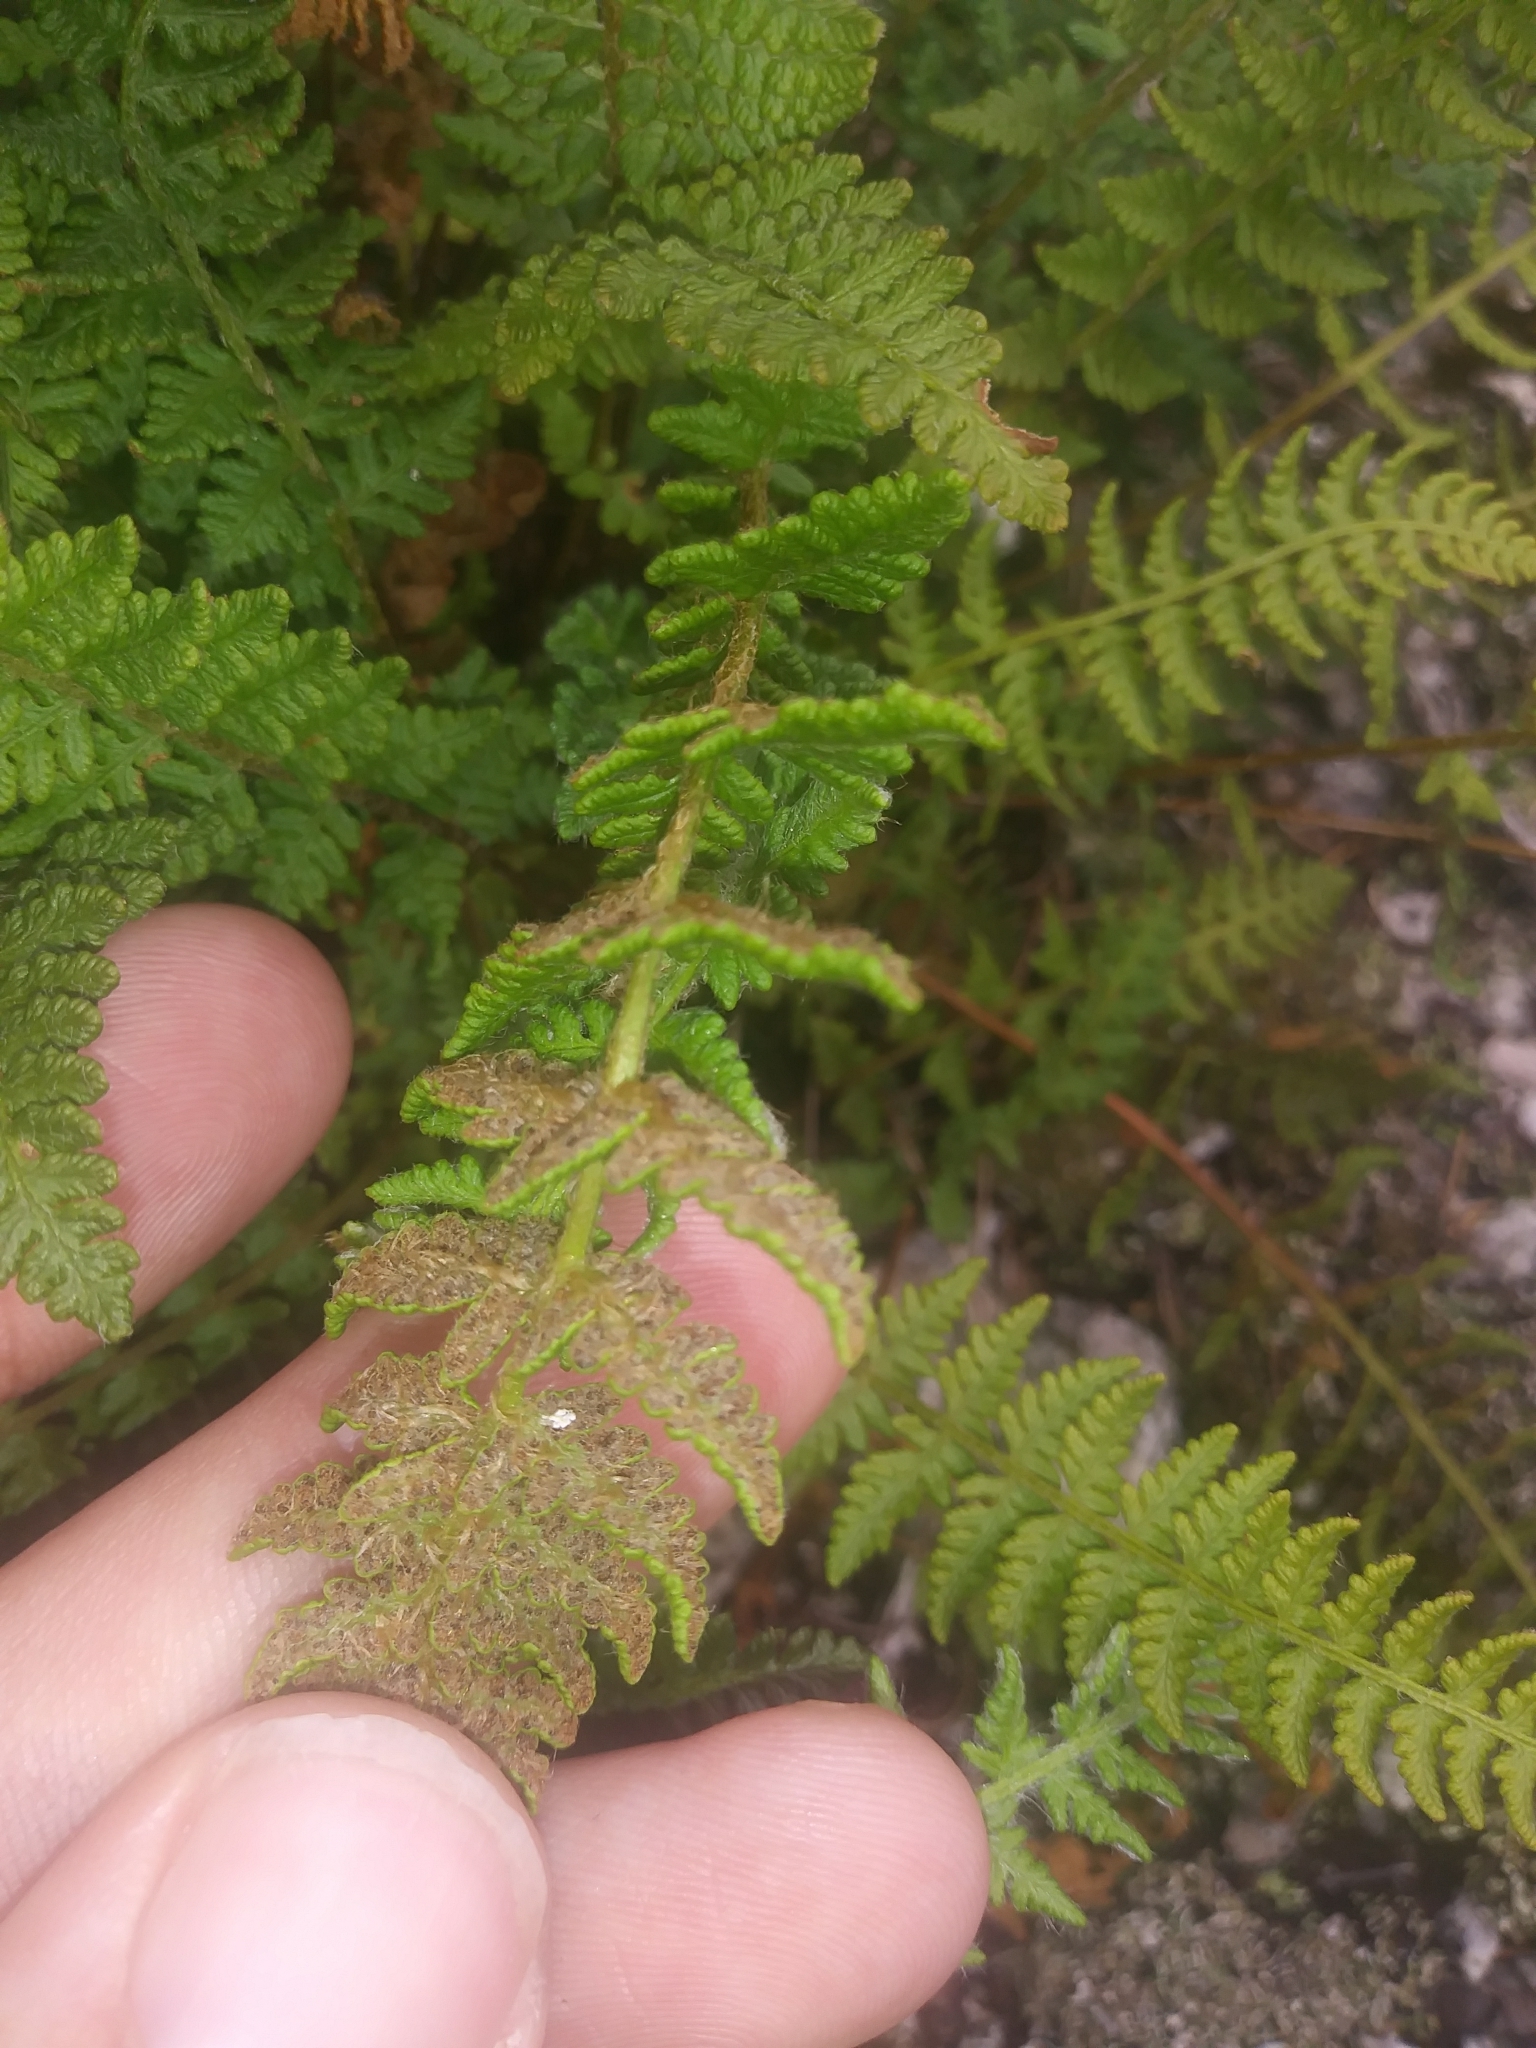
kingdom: Plantae
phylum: Tracheophyta
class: Polypodiopsida
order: Polypodiales
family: Woodsiaceae
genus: Woodsia
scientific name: Woodsia ilvensis
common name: Fragrant woodsia
